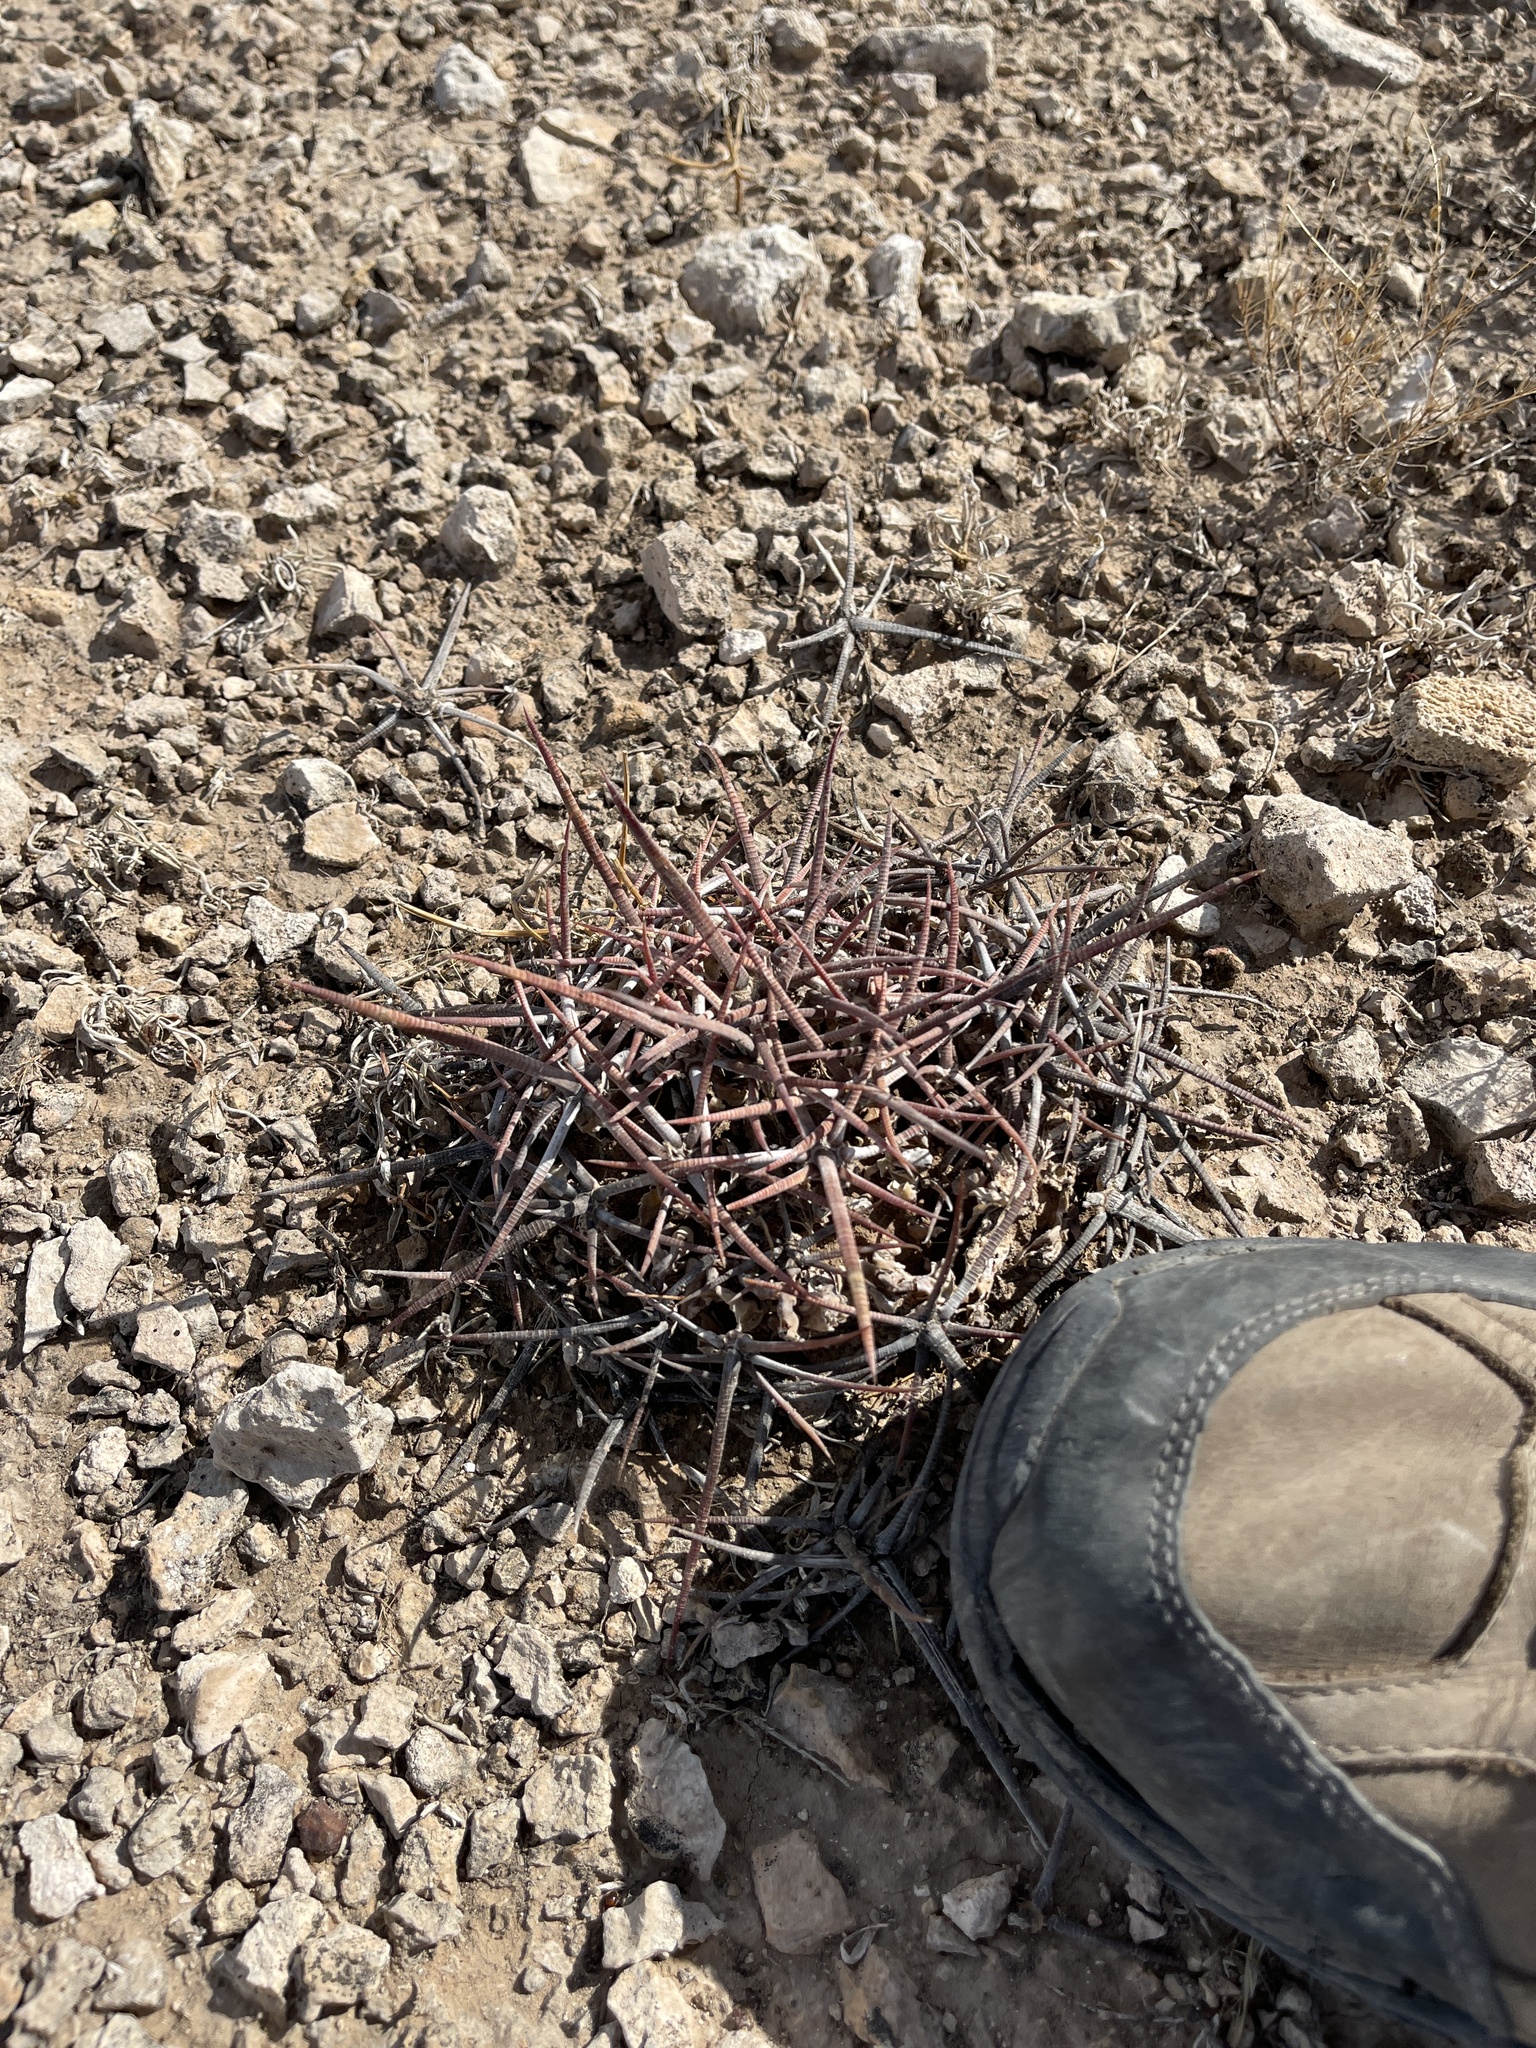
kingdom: Plantae
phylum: Tracheophyta
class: Magnoliopsida
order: Caryophyllales
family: Cactaceae
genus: Echinocactus
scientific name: Echinocactus texensis
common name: Devil's pincushion
